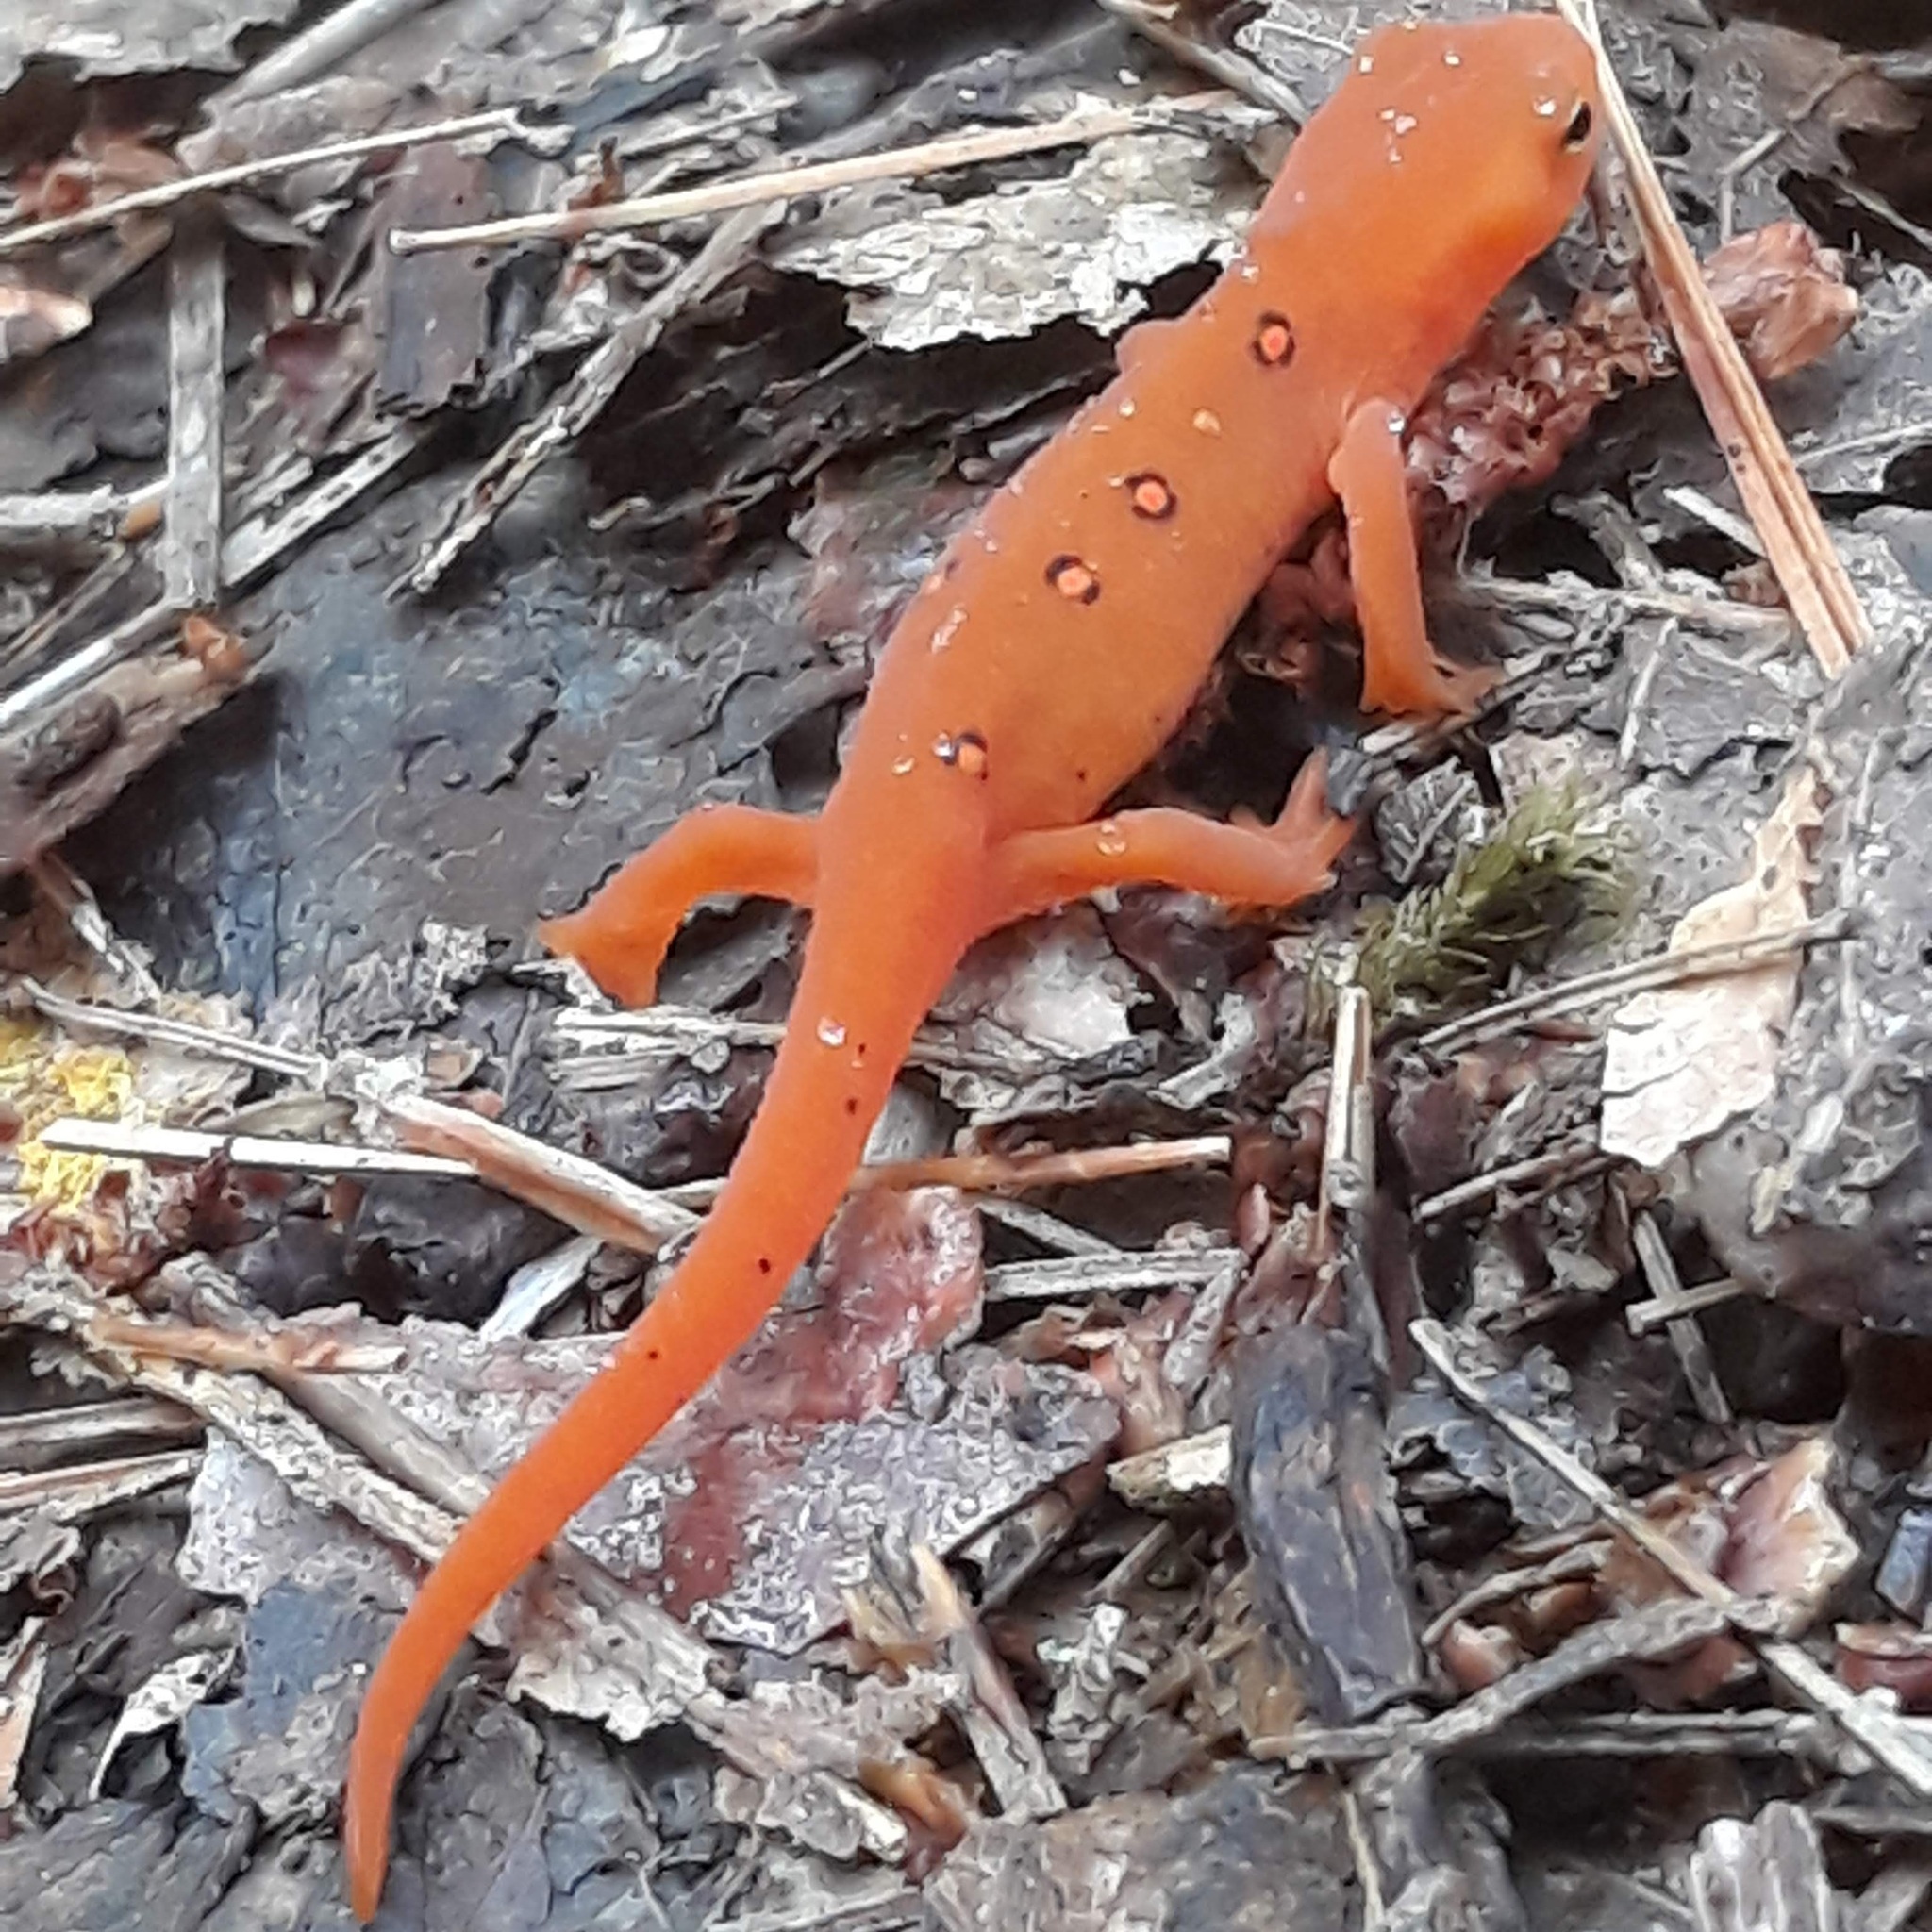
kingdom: Animalia
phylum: Chordata
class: Amphibia
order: Caudata
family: Salamandridae
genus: Notophthalmus
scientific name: Notophthalmus viridescens
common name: Eastern newt
